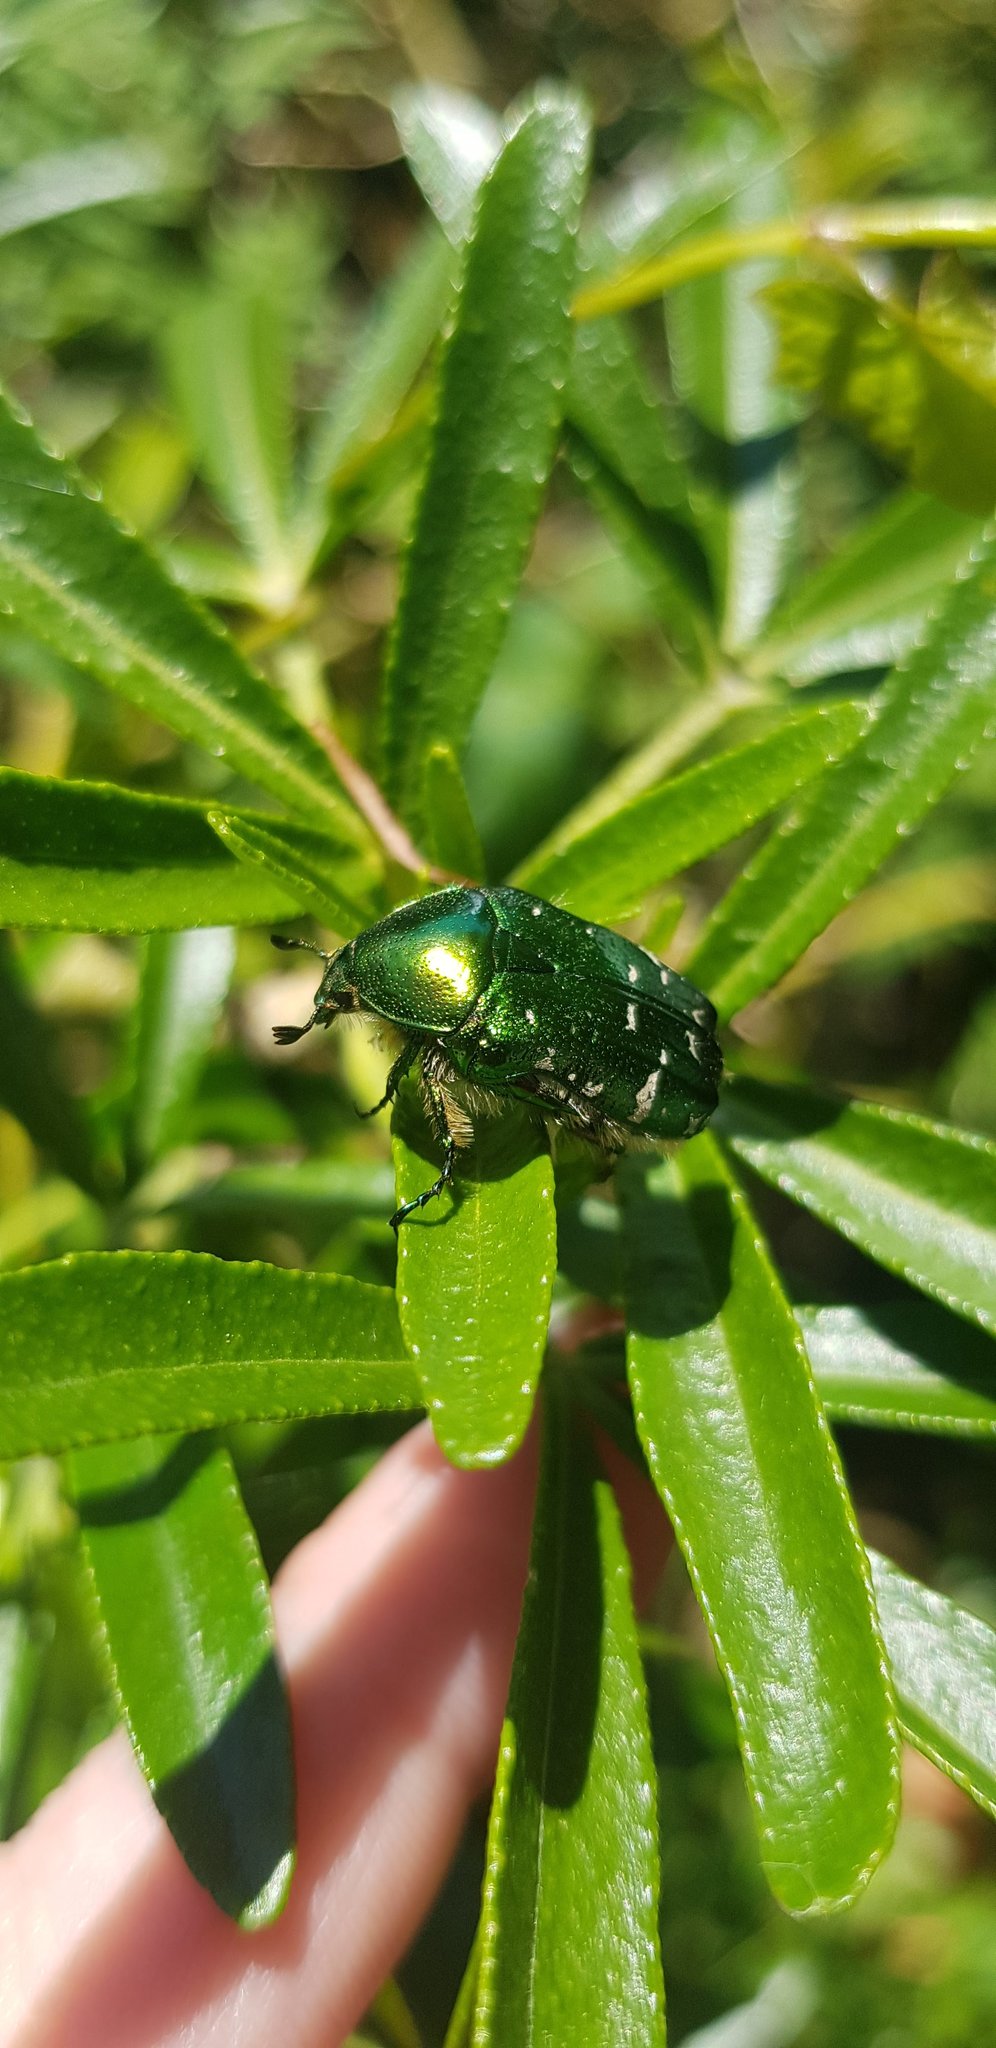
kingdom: Animalia
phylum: Arthropoda
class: Insecta
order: Coleoptera
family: Scarabaeidae
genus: Cetonia
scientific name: Cetonia aurata
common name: Rose chafer
